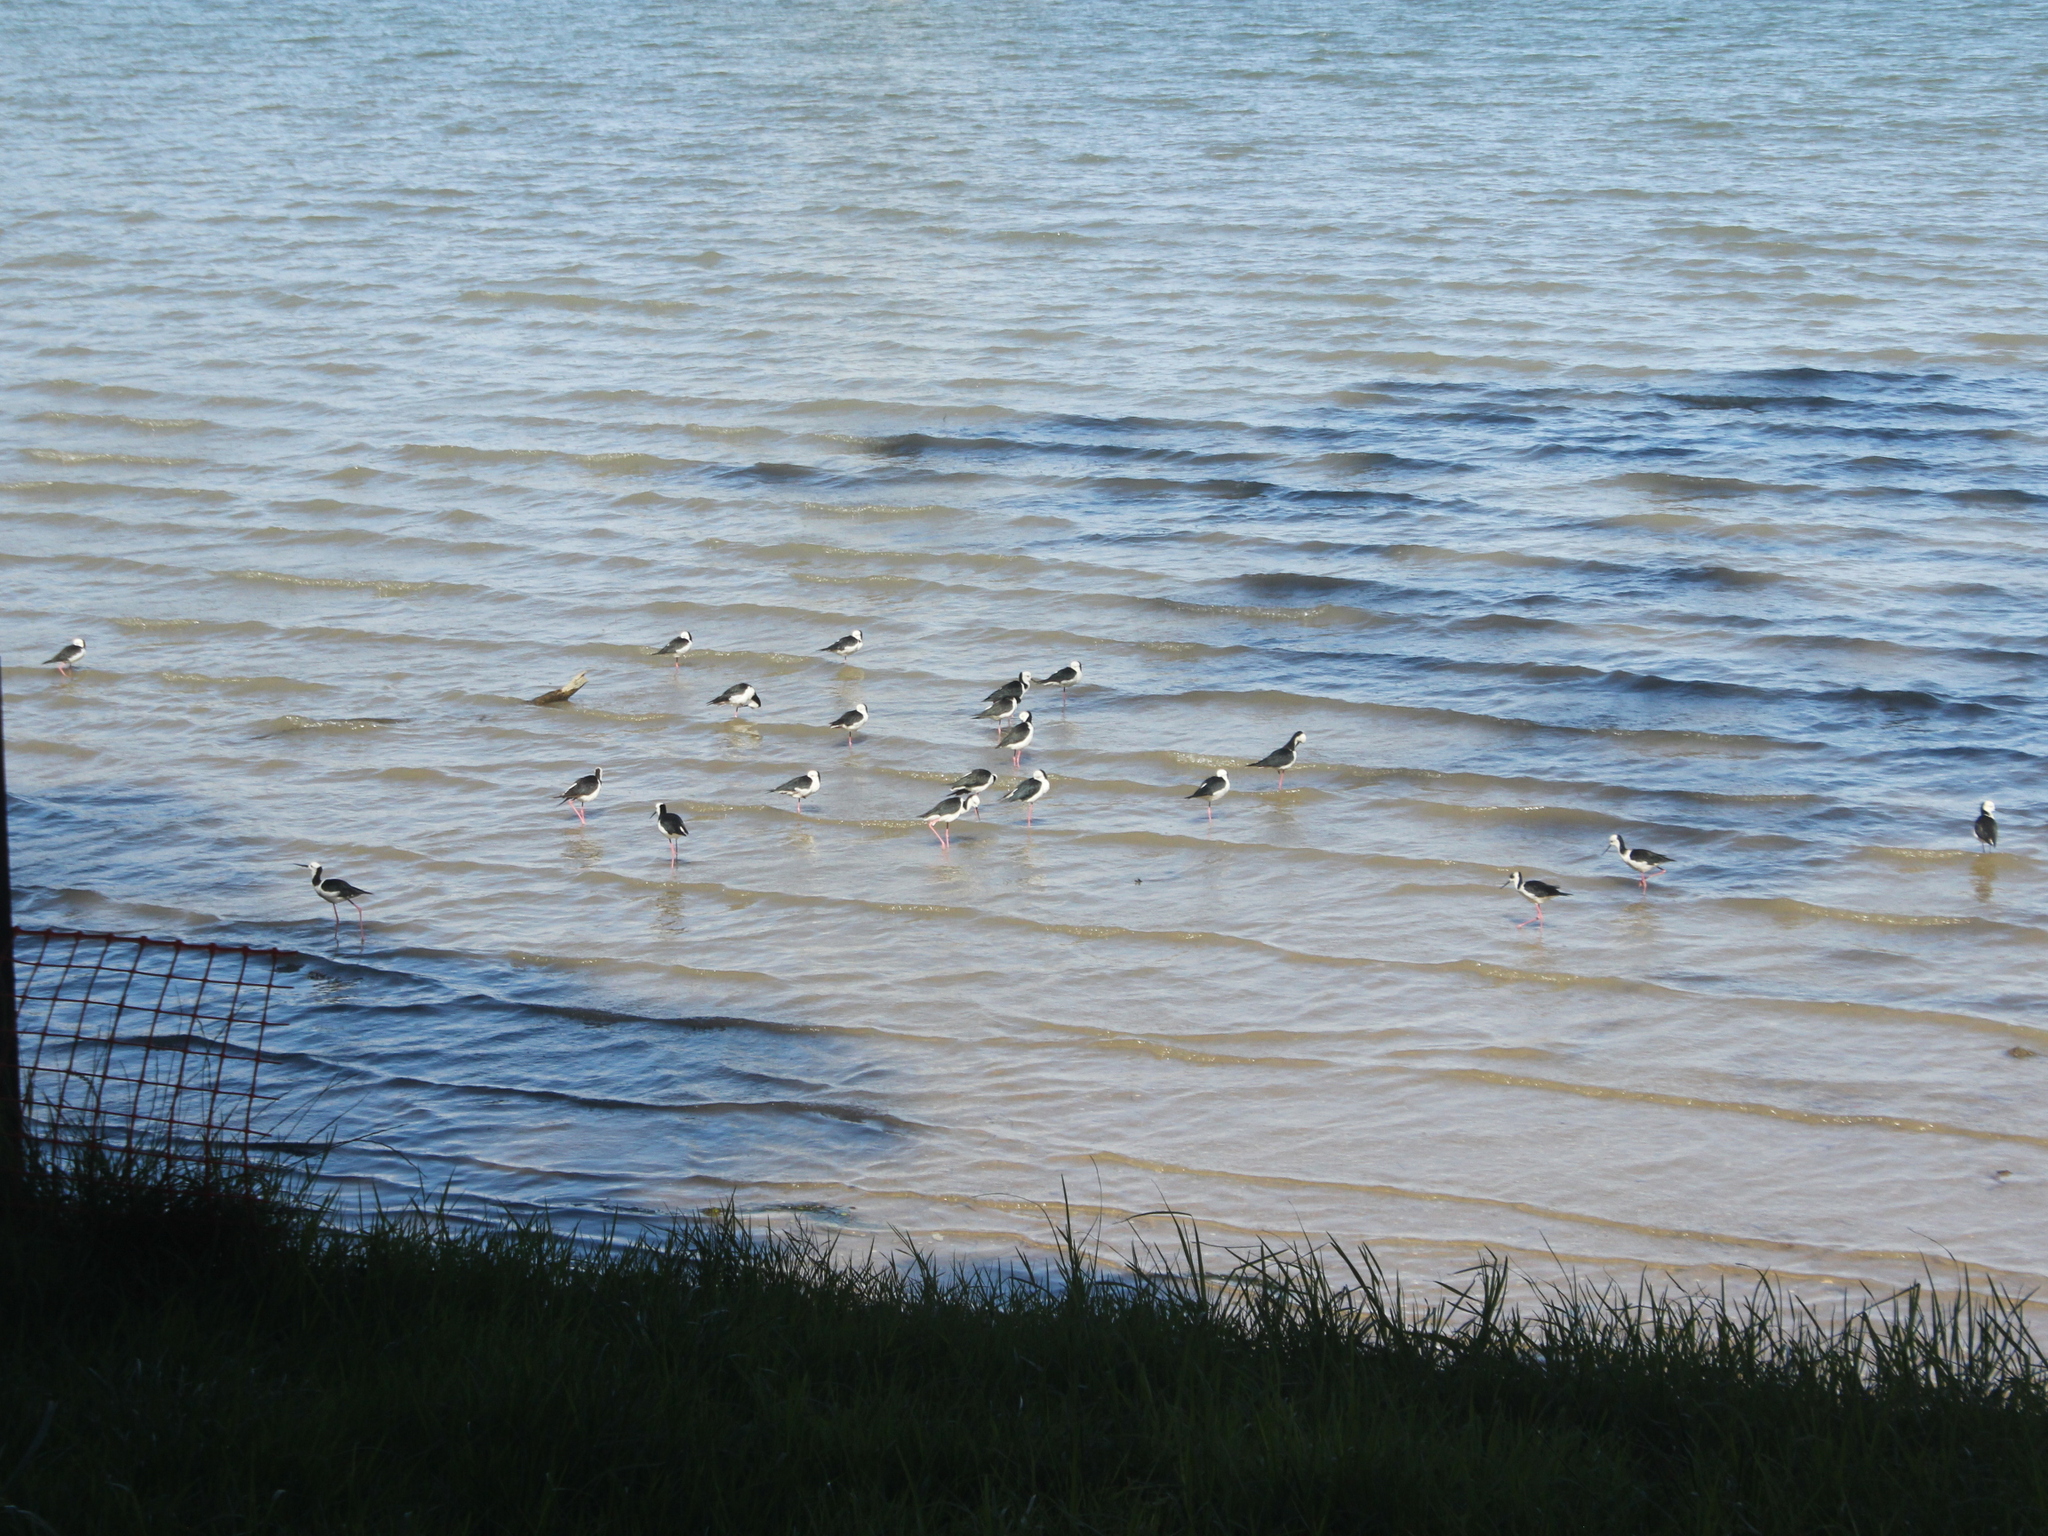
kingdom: Animalia
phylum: Chordata
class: Aves
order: Charadriiformes
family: Recurvirostridae
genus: Himantopus
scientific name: Himantopus leucocephalus
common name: White-headed stilt
